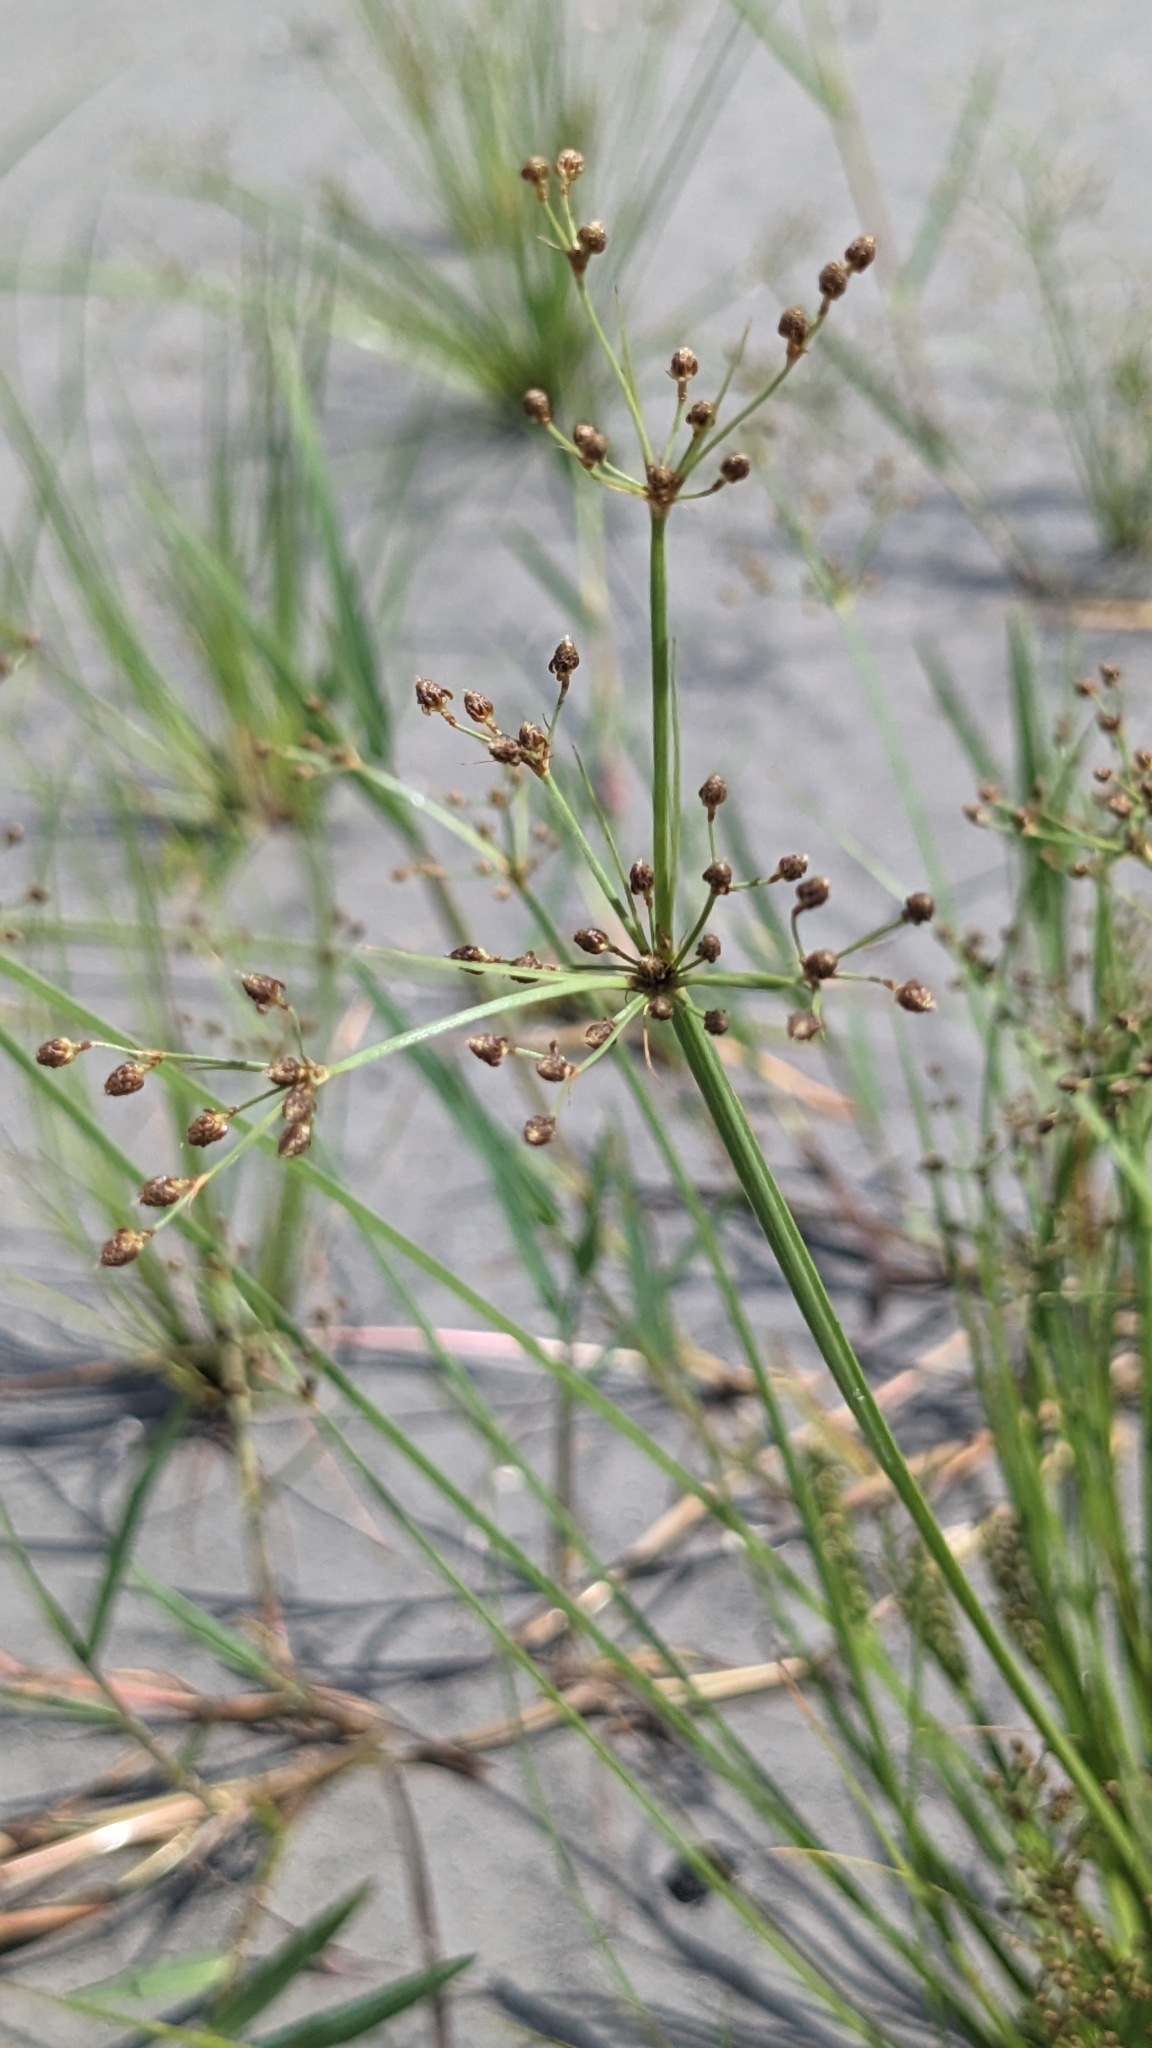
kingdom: Plantae
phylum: Tracheophyta
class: Liliopsida
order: Poales
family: Cyperaceae
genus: Fimbristylis
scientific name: Fimbristylis littoralis
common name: Fimbry
